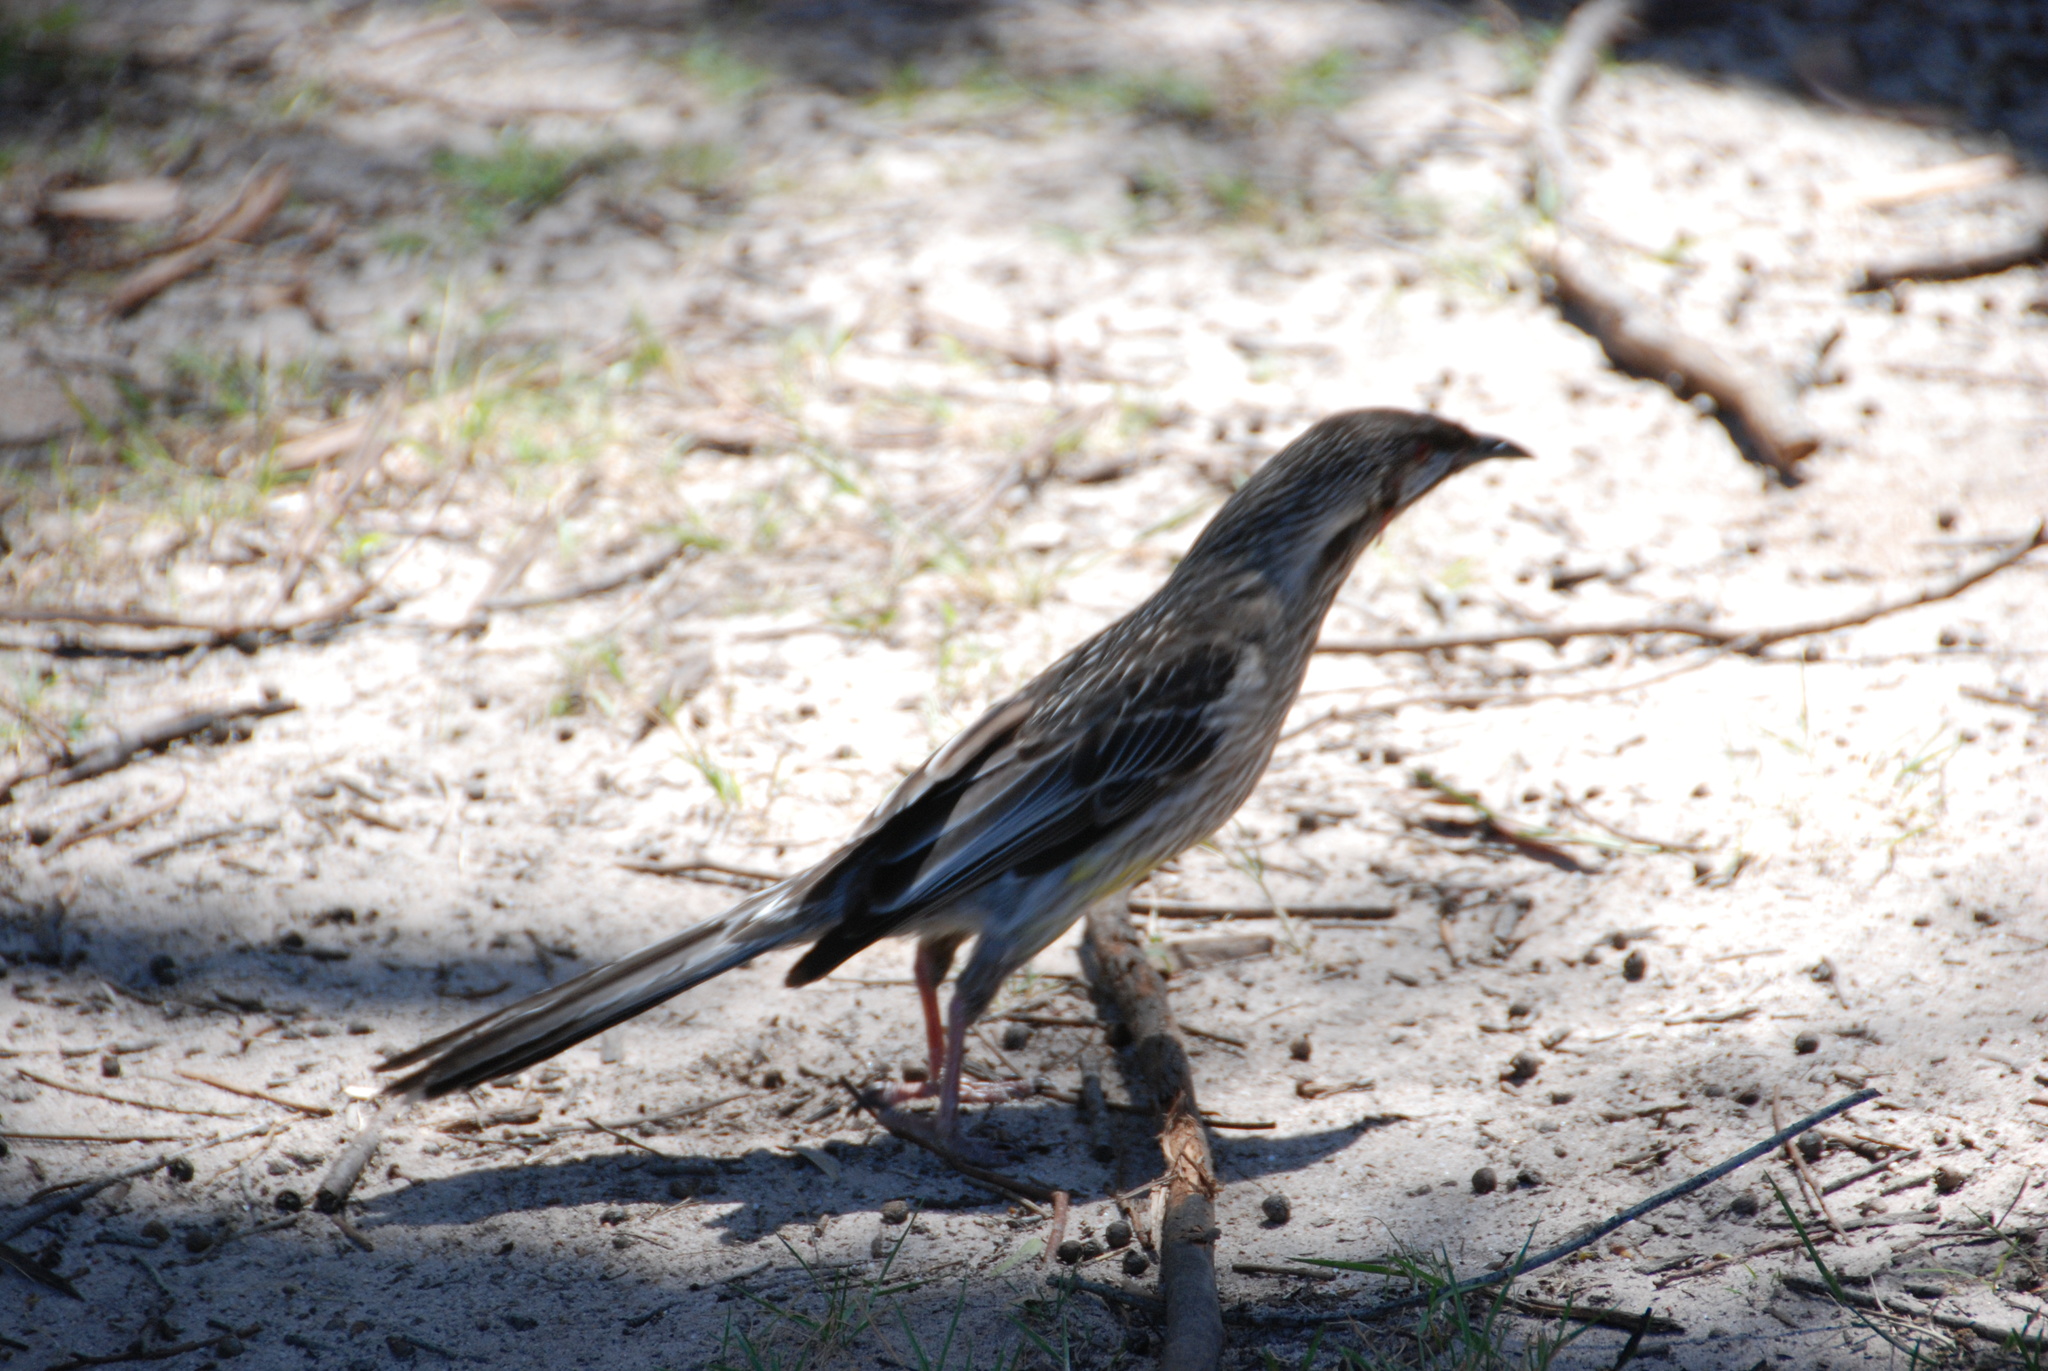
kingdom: Animalia
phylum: Chordata
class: Aves
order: Passeriformes
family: Meliphagidae
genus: Anthochaera
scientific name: Anthochaera carunculata
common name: Red wattlebird
